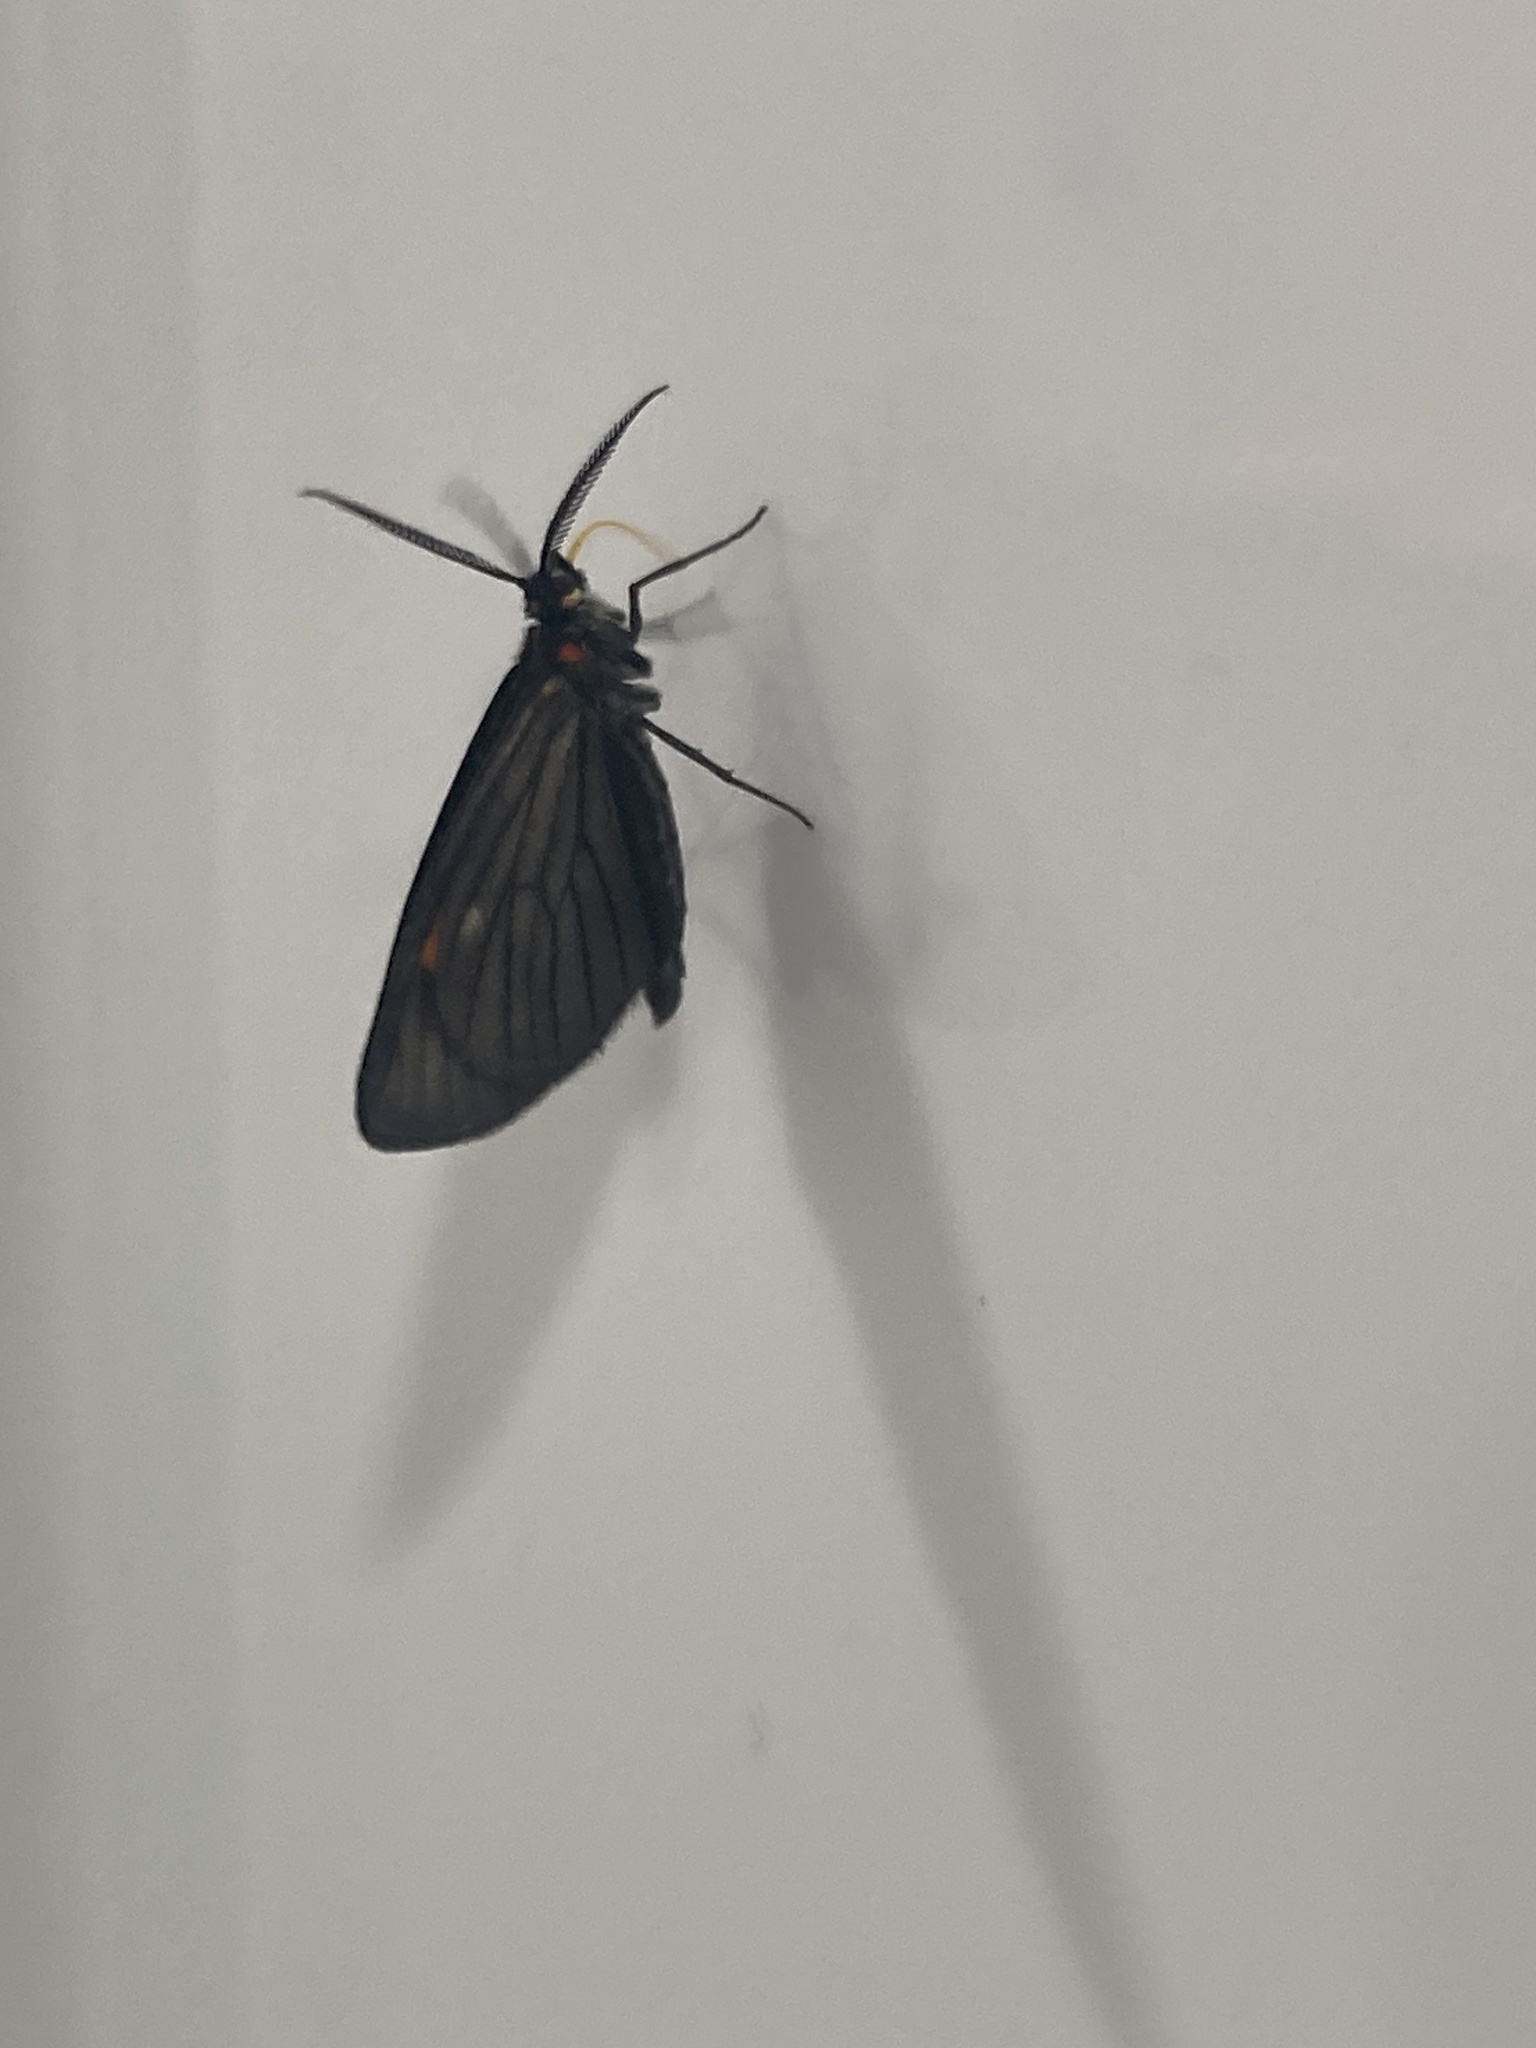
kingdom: Animalia
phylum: Arthropoda
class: Insecta
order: Lepidoptera
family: Geometridae
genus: Sangalopsis
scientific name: Sangalopsis ficifera
